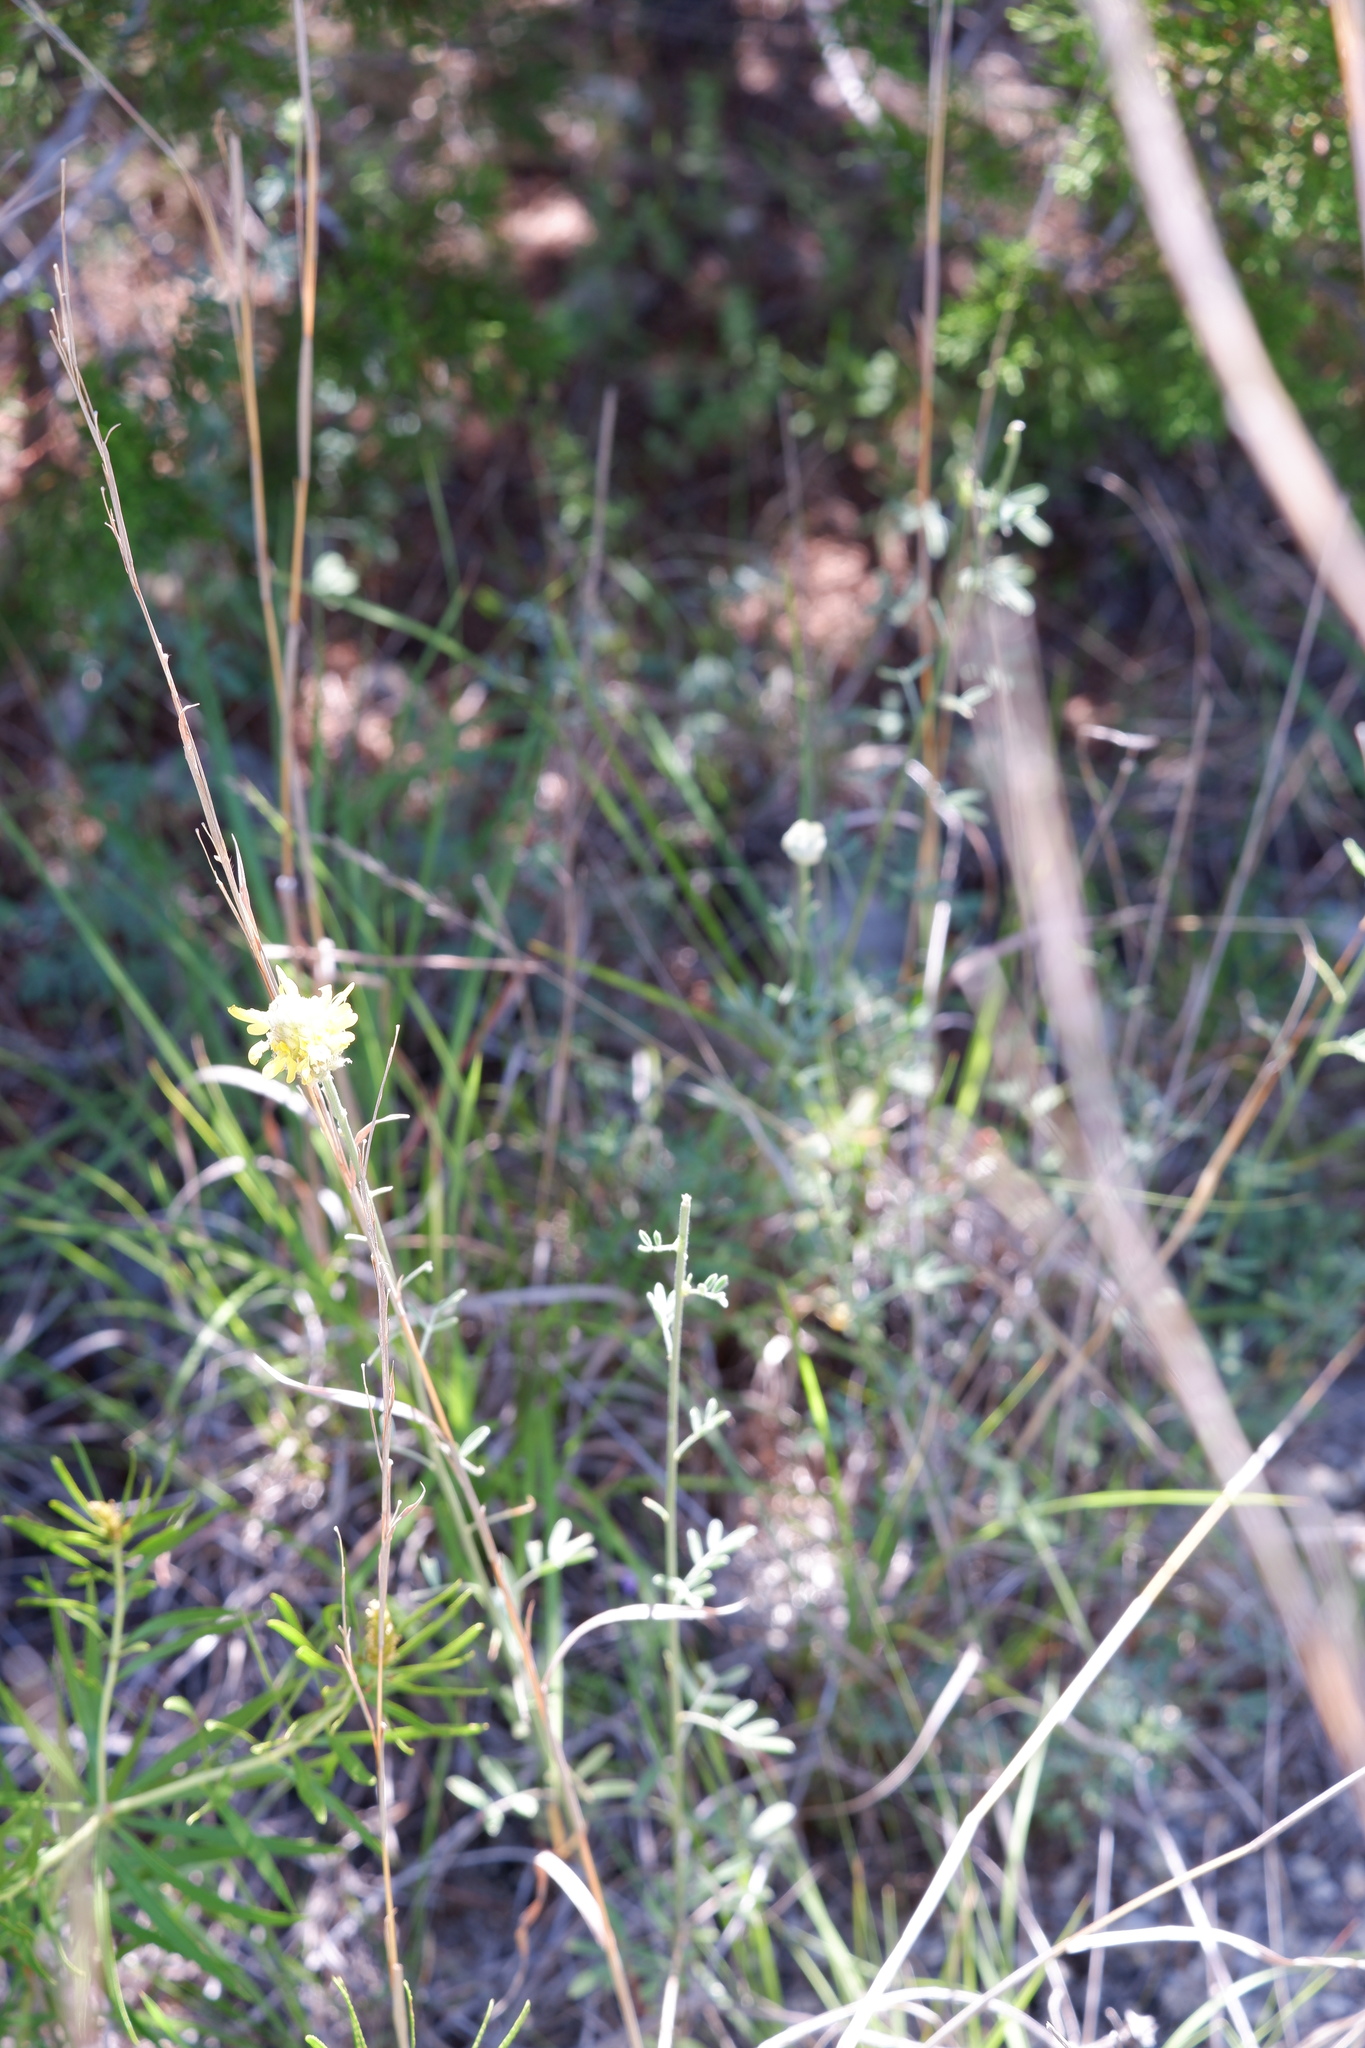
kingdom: Plantae
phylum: Tracheophyta
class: Magnoliopsida
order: Fabales
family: Fabaceae
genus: Dalea
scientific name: Dalea aurea
